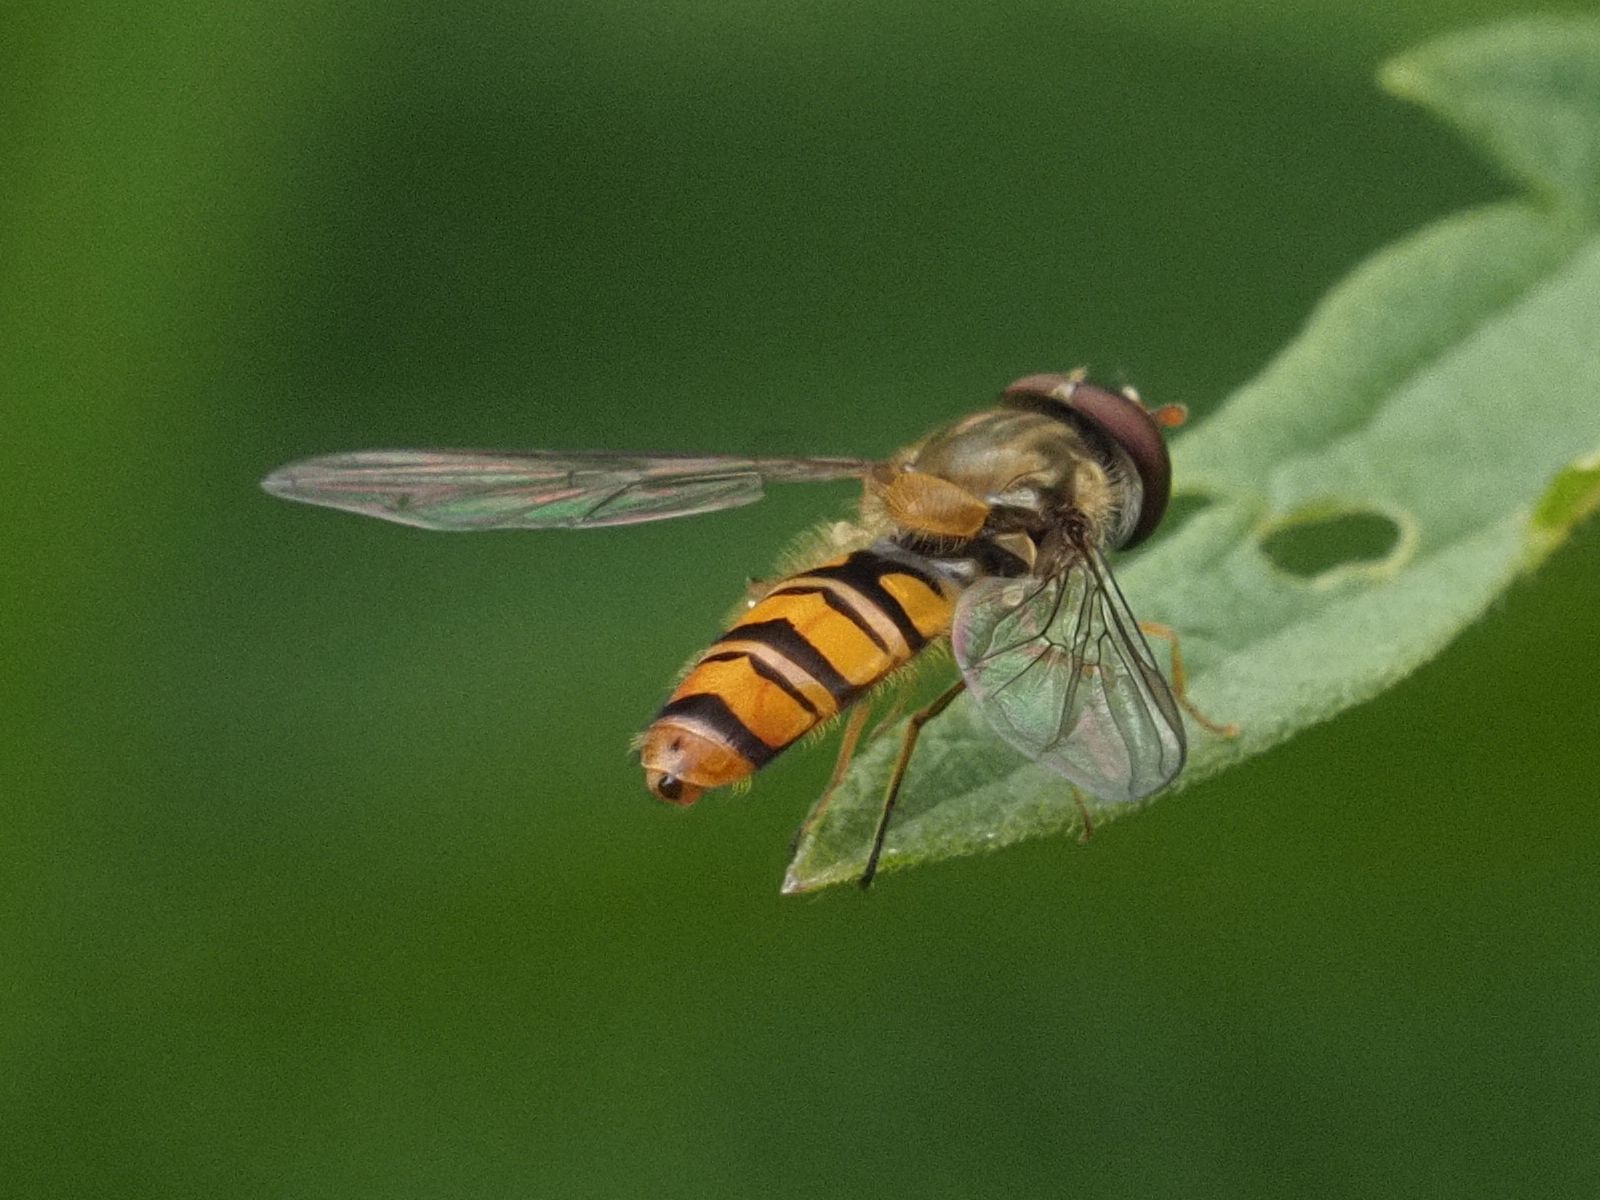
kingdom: Animalia
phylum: Arthropoda
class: Insecta
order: Diptera
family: Syrphidae
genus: Episyrphus
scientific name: Episyrphus balteatus
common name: Marmalade hoverfly
